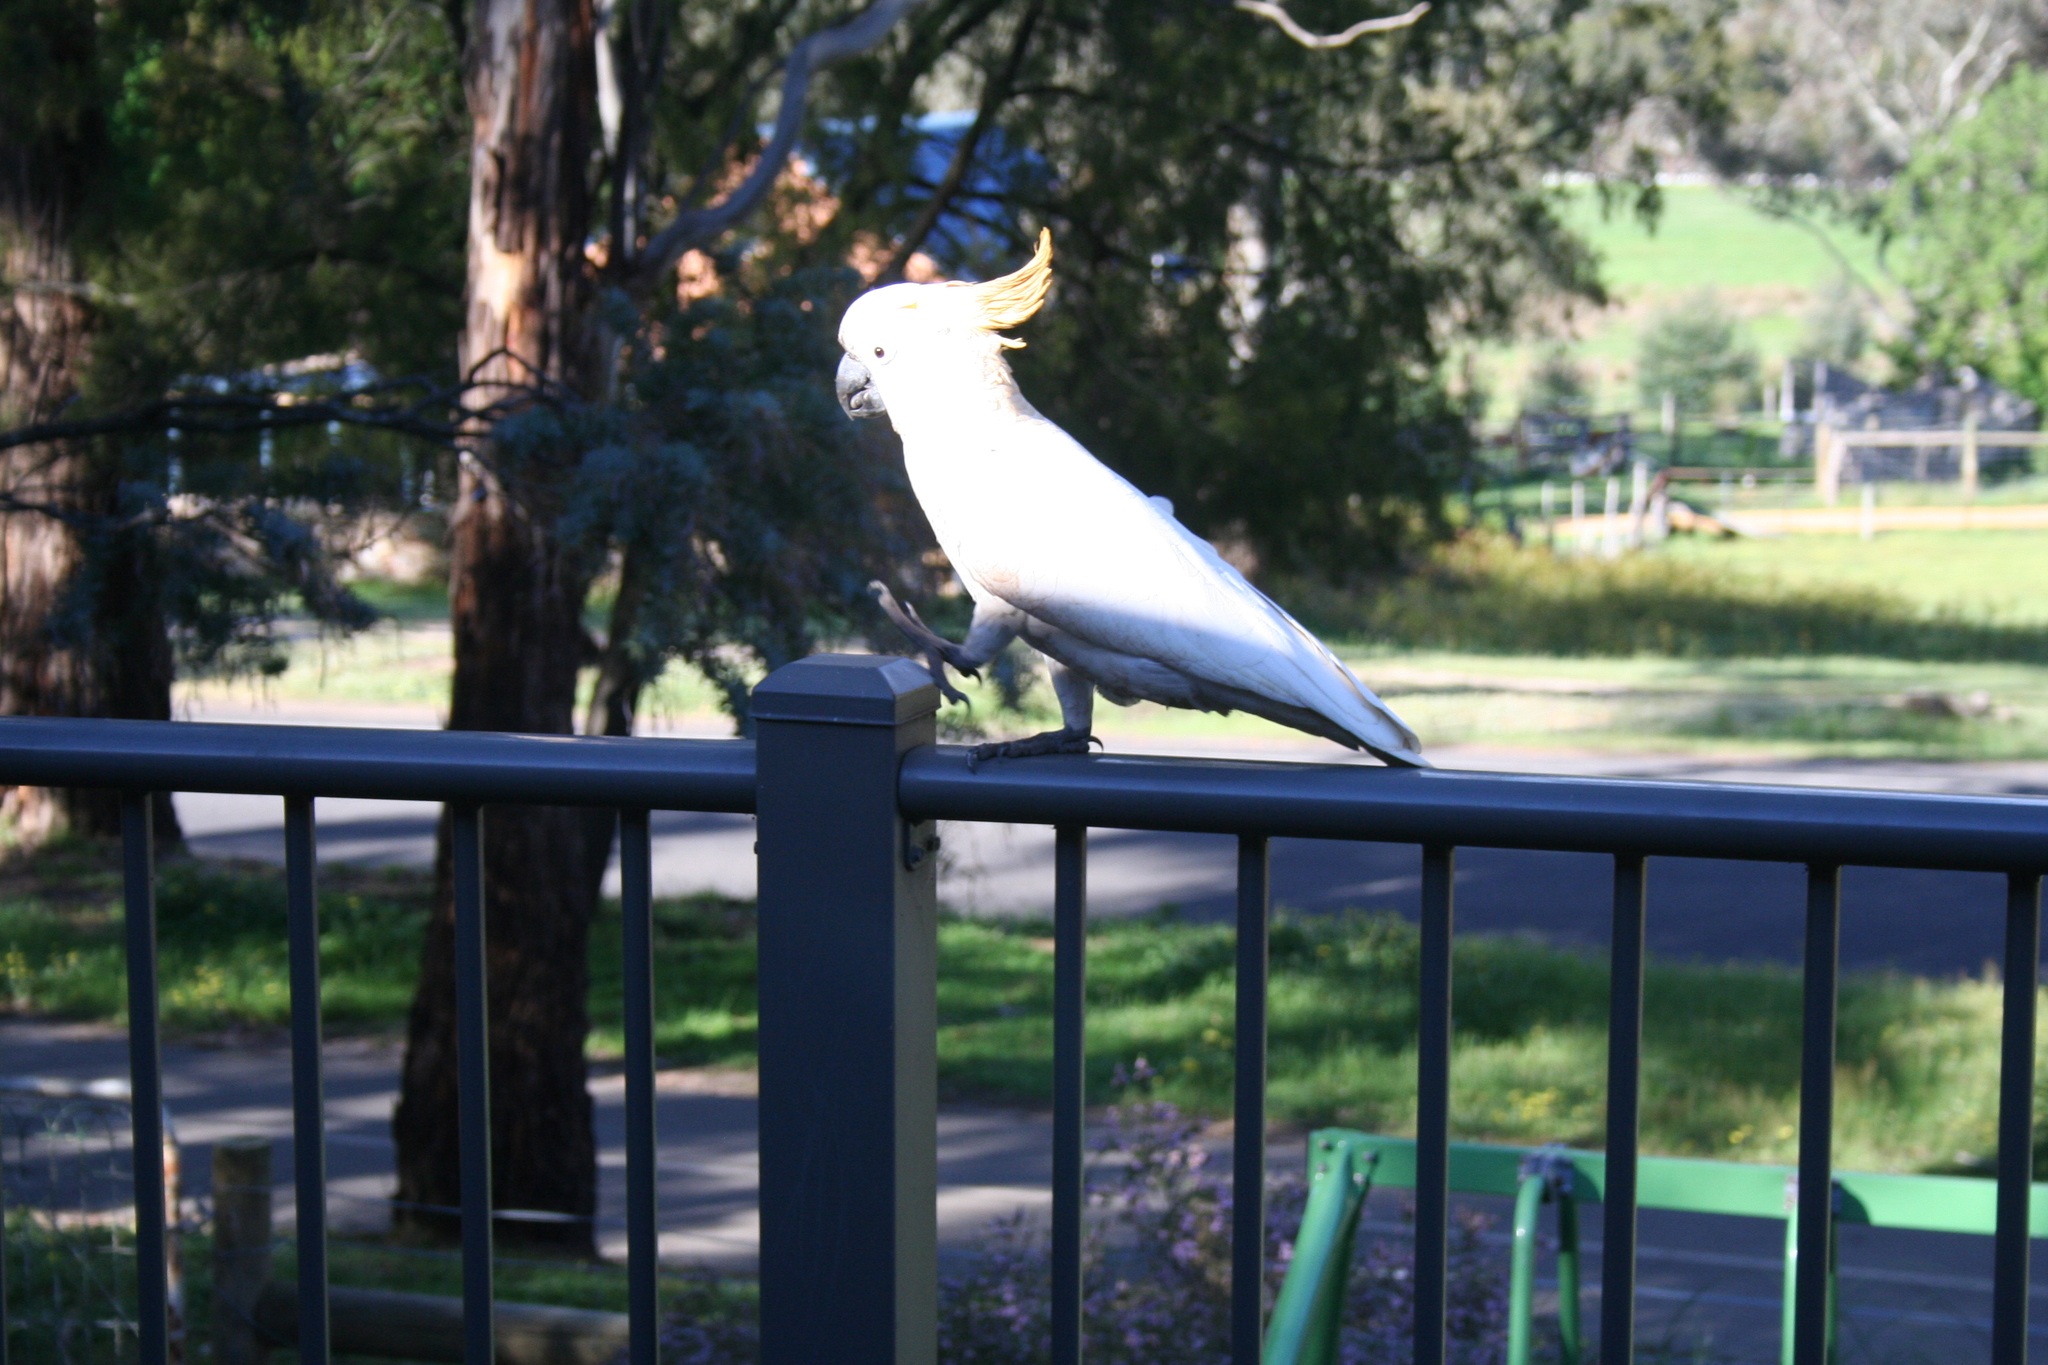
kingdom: Animalia
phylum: Chordata
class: Aves
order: Psittaciformes
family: Psittacidae
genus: Cacatua
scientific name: Cacatua galerita
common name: Sulphur-crested cockatoo
